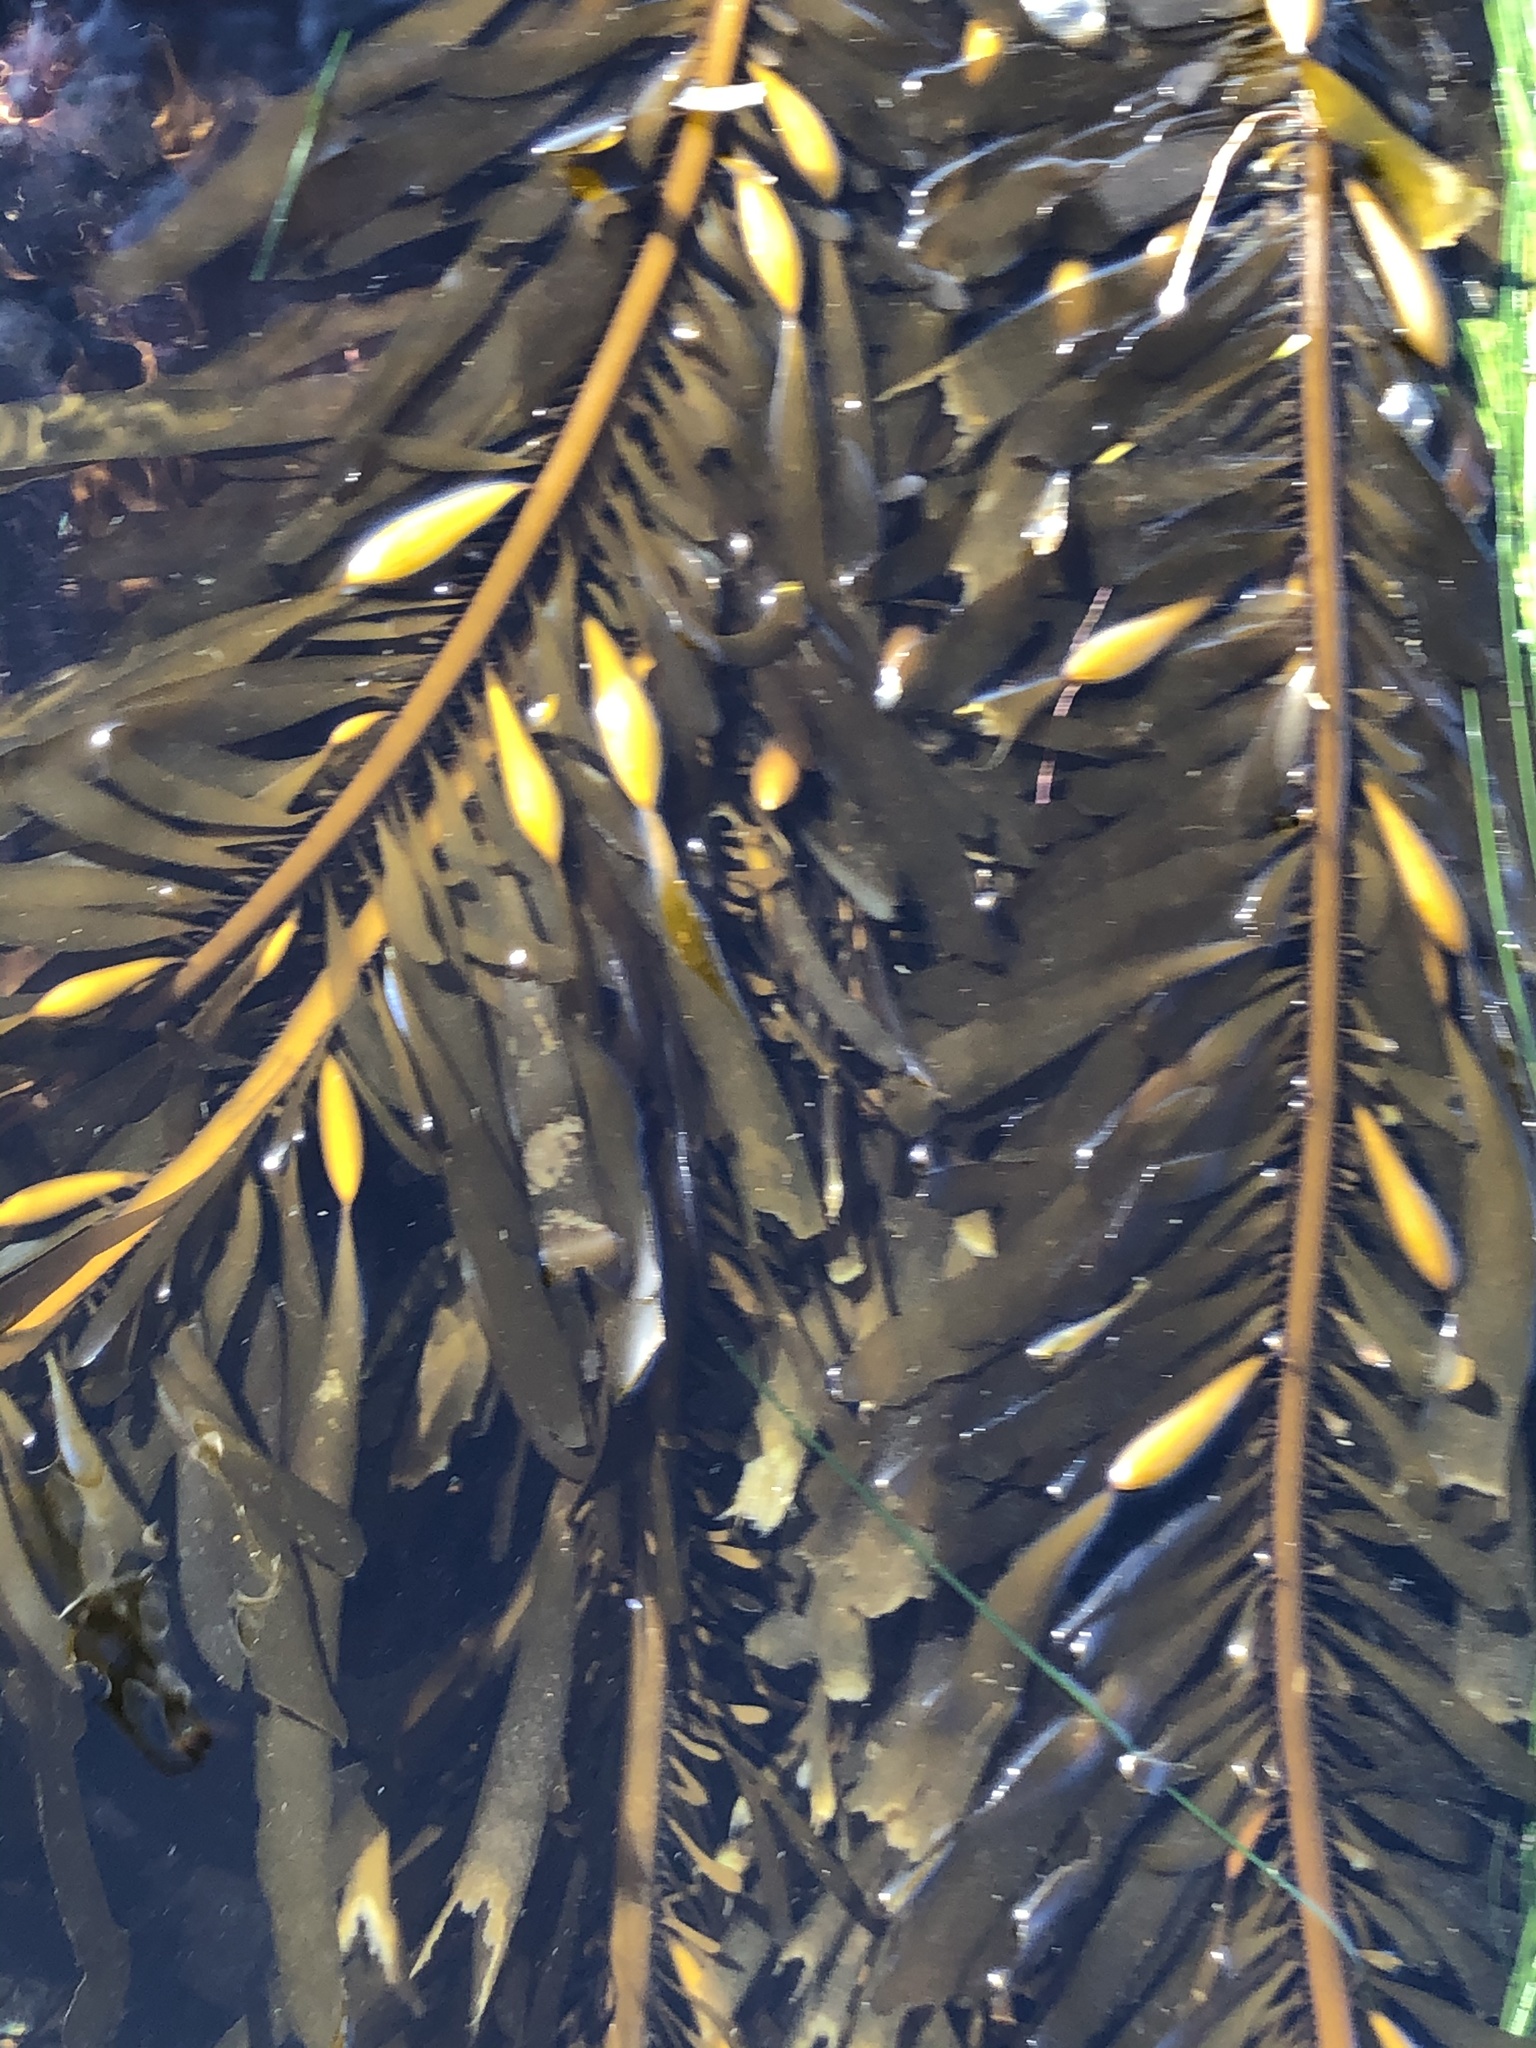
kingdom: Chromista
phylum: Ochrophyta
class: Phaeophyceae
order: Laminariales
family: Lessoniaceae
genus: Egregia
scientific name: Egregia menziesii
